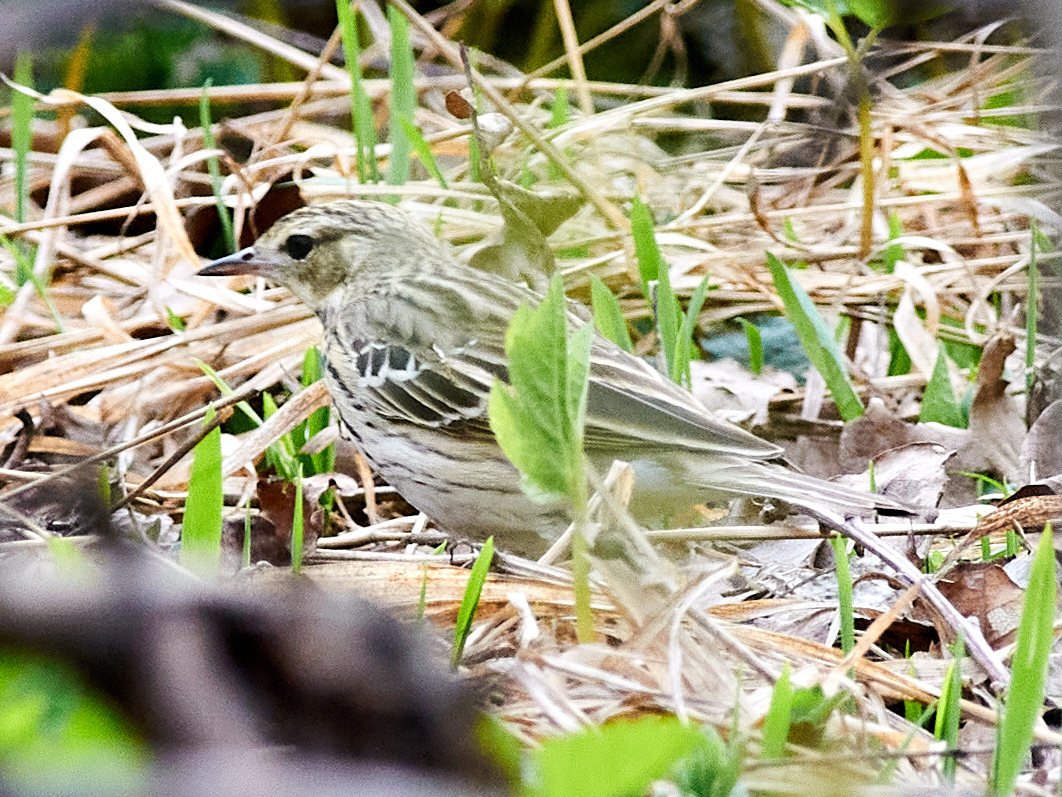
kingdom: Animalia
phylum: Chordata
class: Aves
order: Passeriformes
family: Motacillidae
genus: Anthus
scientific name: Anthus trivialis
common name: Tree pipit
